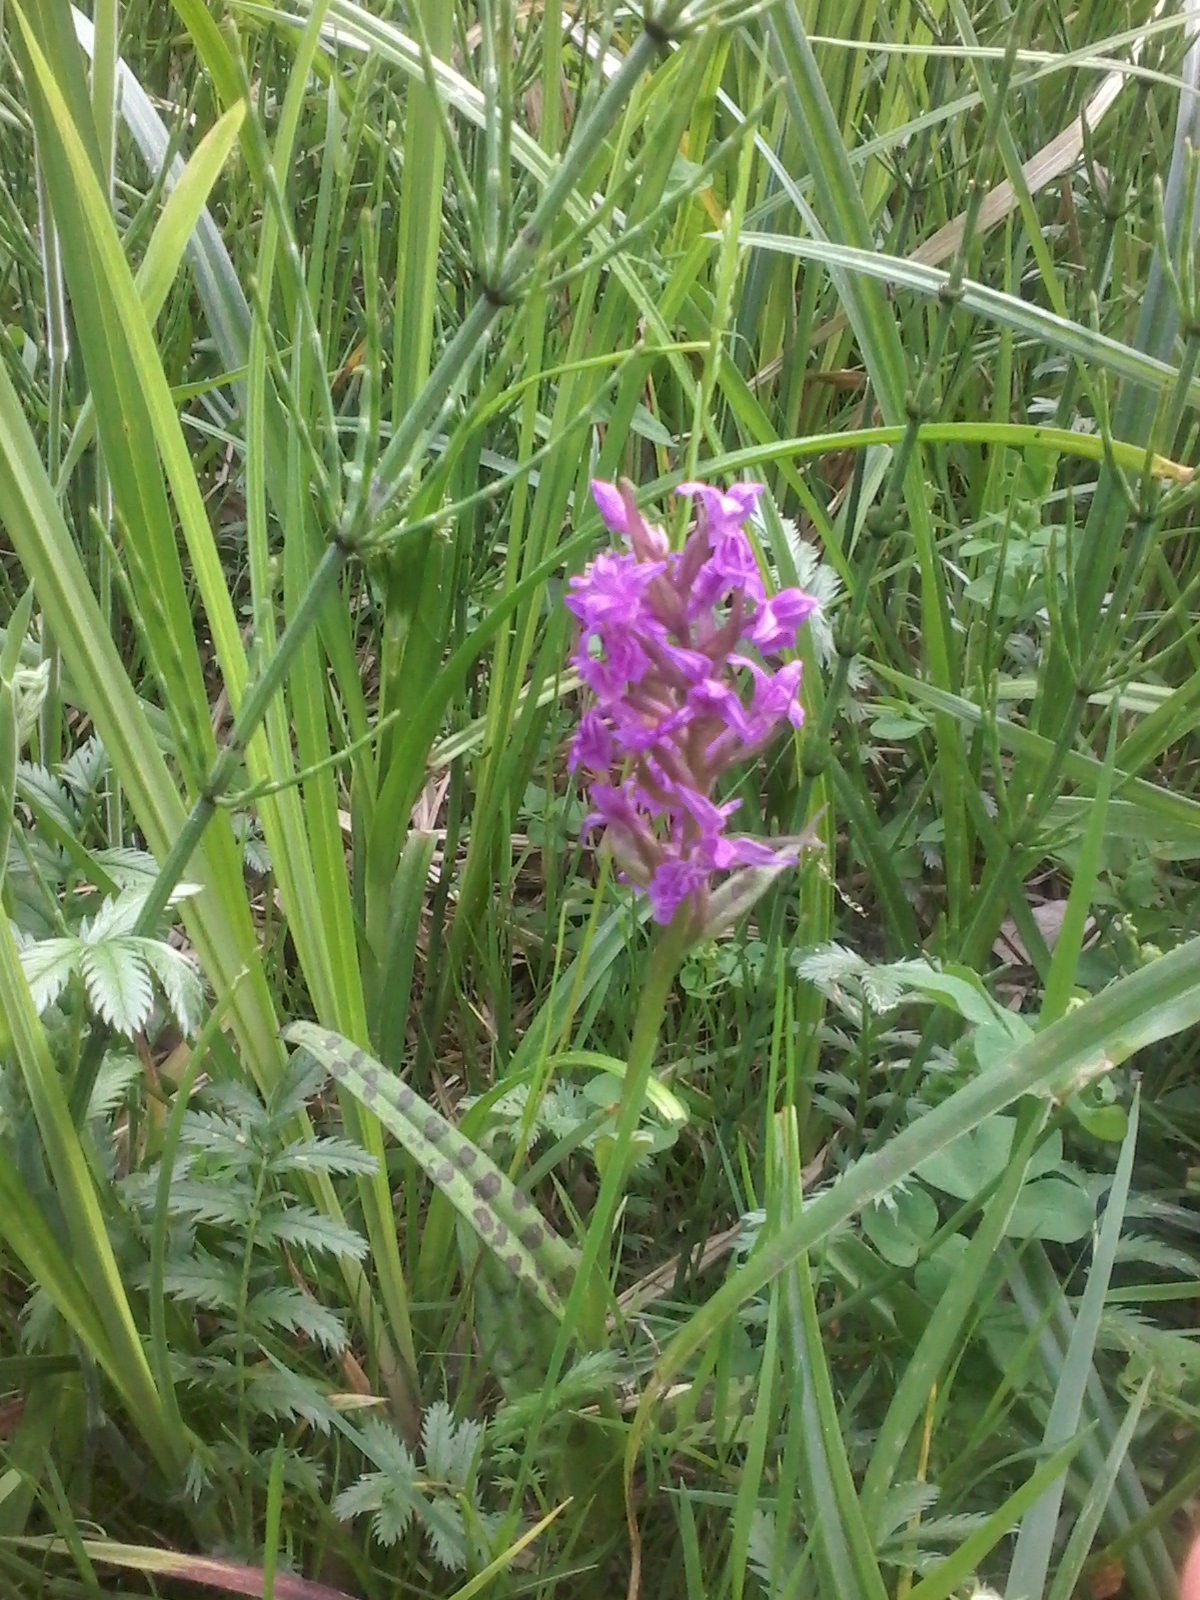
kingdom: Plantae
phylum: Tracheophyta
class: Liliopsida
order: Asparagales
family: Orchidaceae
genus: Dactylorhiza
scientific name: Dactylorhiza majalis
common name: Marsh orchid
